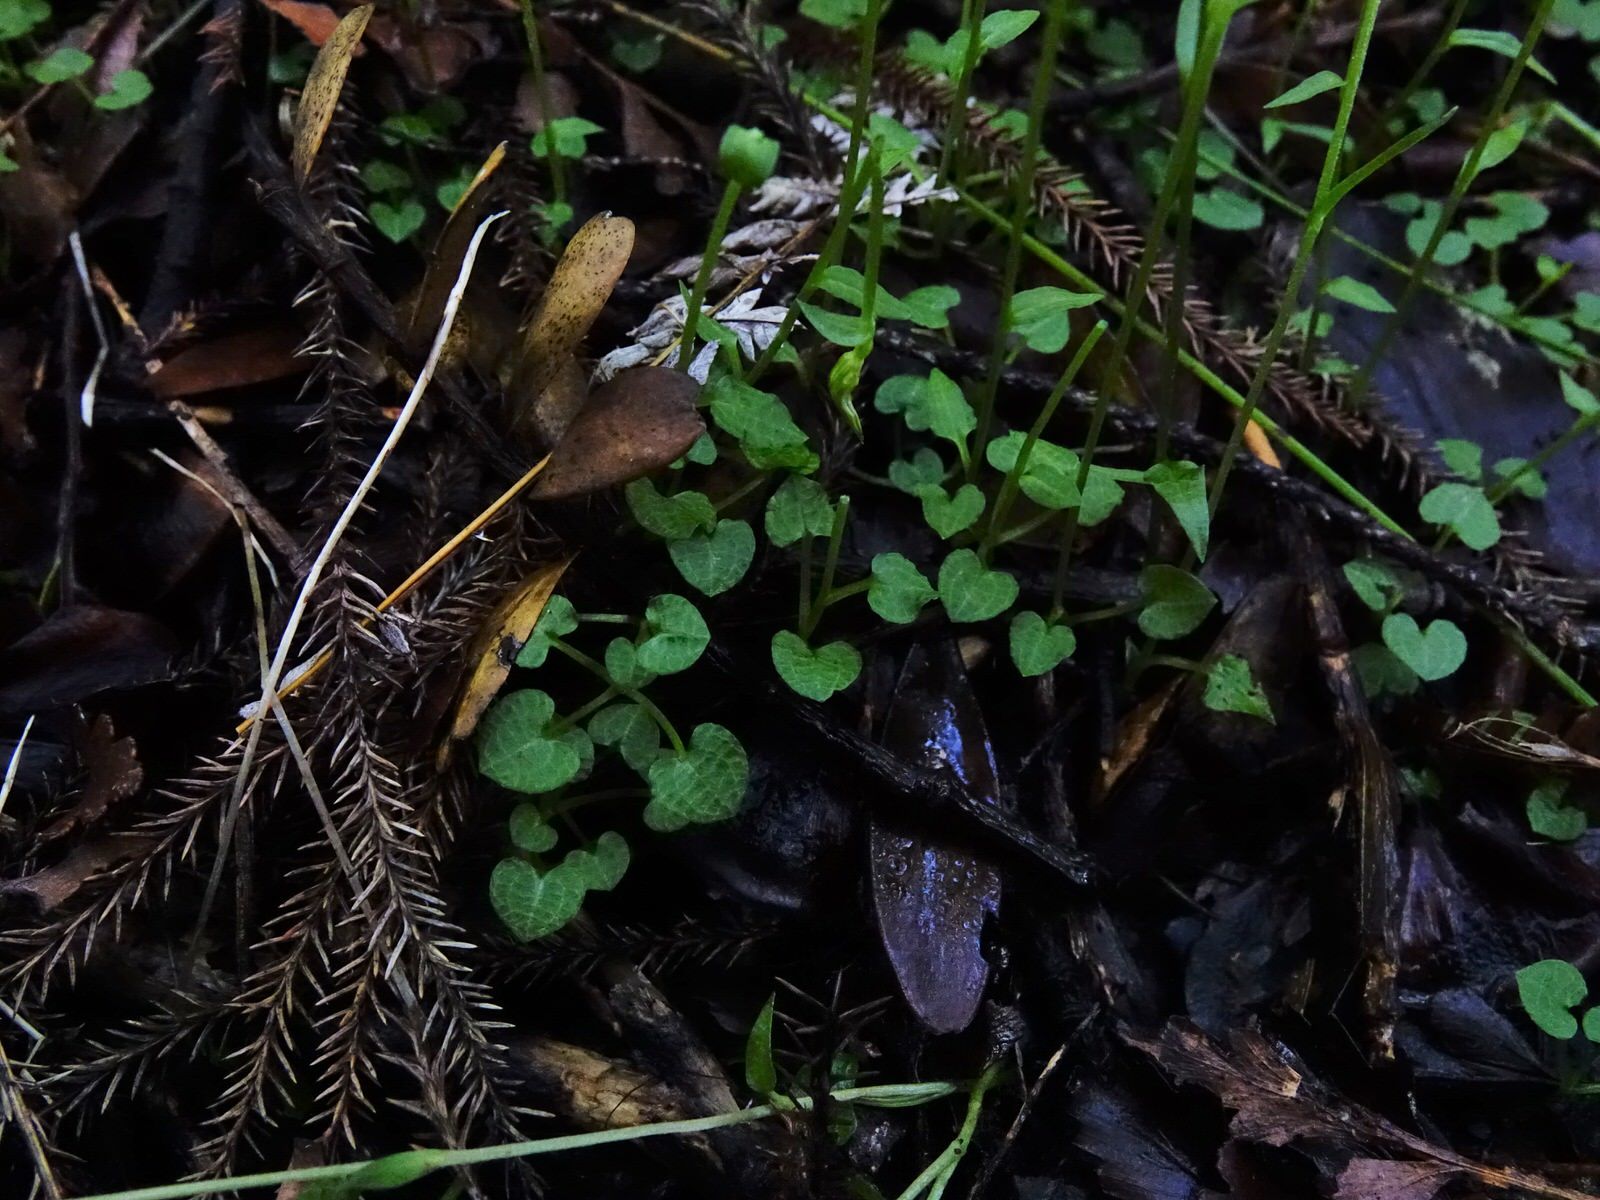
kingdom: Plantae
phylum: Tracheophyta
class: Liliopsida
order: Asparagales
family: Orchidaceae
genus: Pterostylis
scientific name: Pterostylis trullifolia
